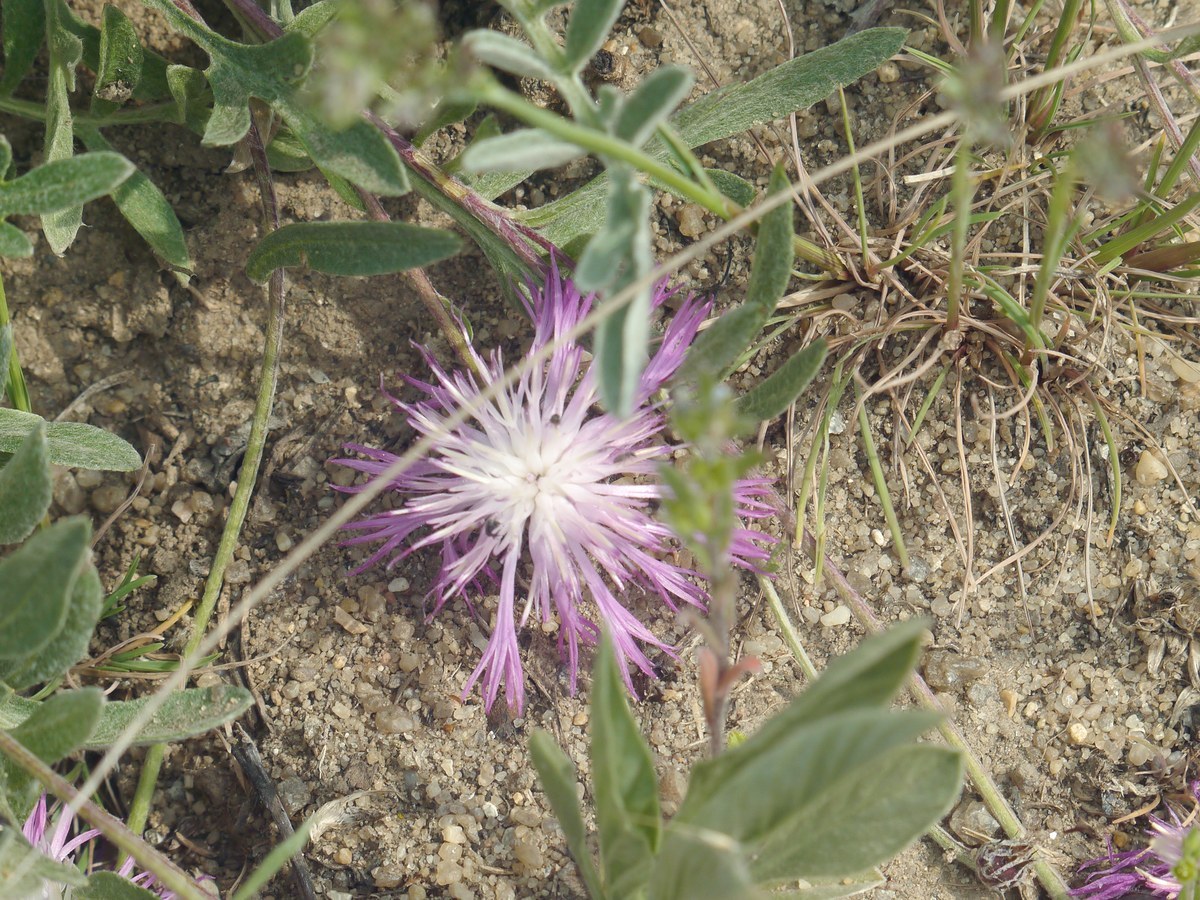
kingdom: Plantae
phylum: Tracheophyta
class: Magnoliopsida
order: Asterales
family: Asteraceae
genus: Psephellus
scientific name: Psephellus marschallianus
